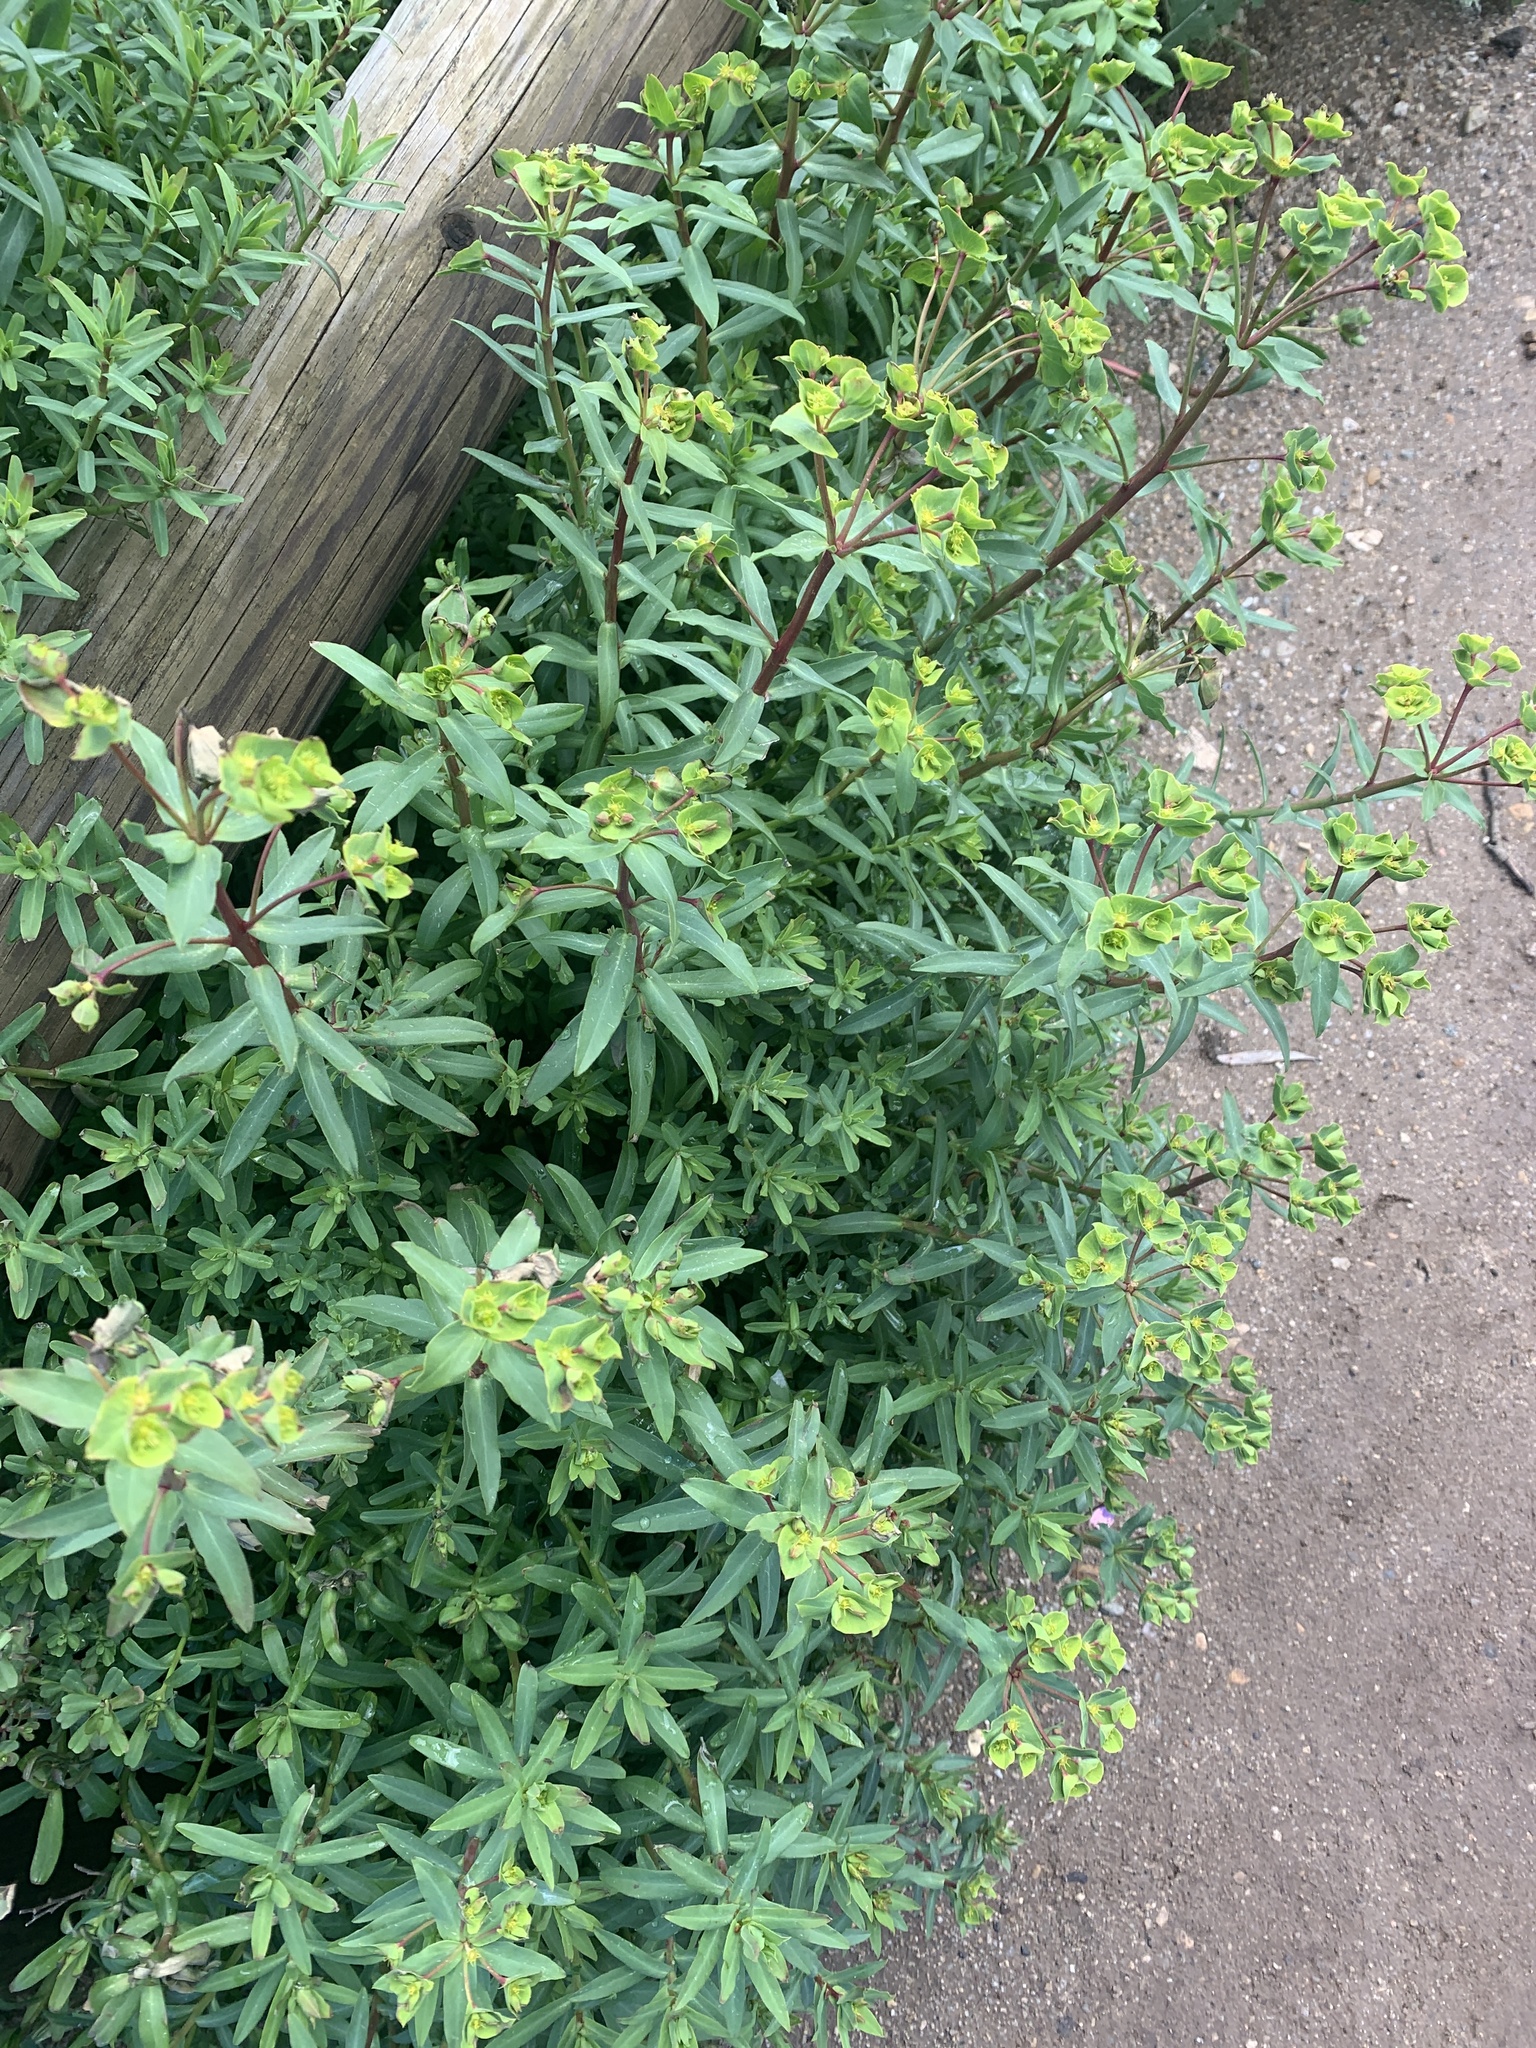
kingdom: Plantae
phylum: Tracheophyta
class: Magnoliopsida
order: Malpighiales
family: Euphorbiaceae
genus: Euphorbia
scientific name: Euphorbia terracina
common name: Geraldton carnation weed
